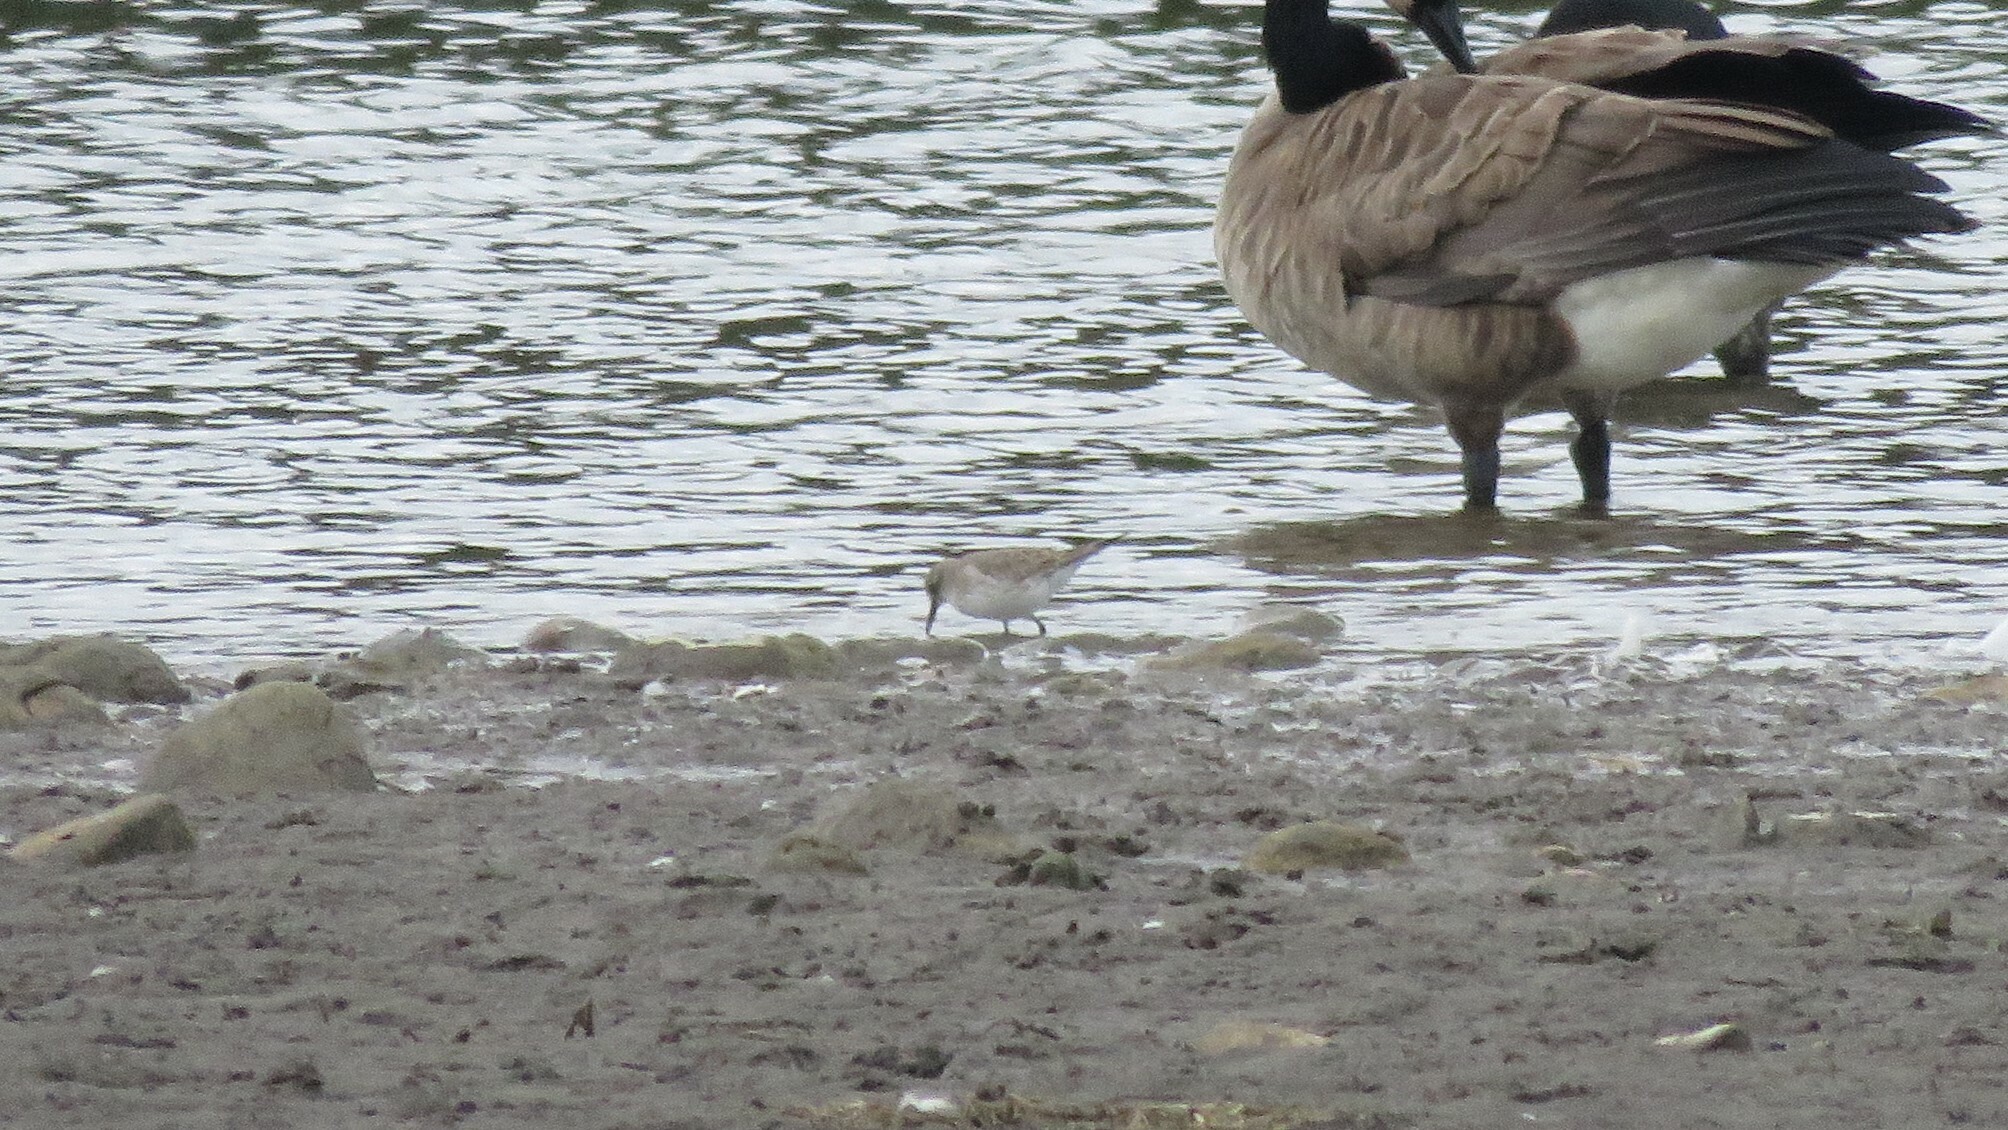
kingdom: Animalia
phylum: Chordata
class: Aves
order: Charadriiformes
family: Scolopacidae
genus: Calidris
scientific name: Calidris fuscicollis
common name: White-rumped sandpiper
